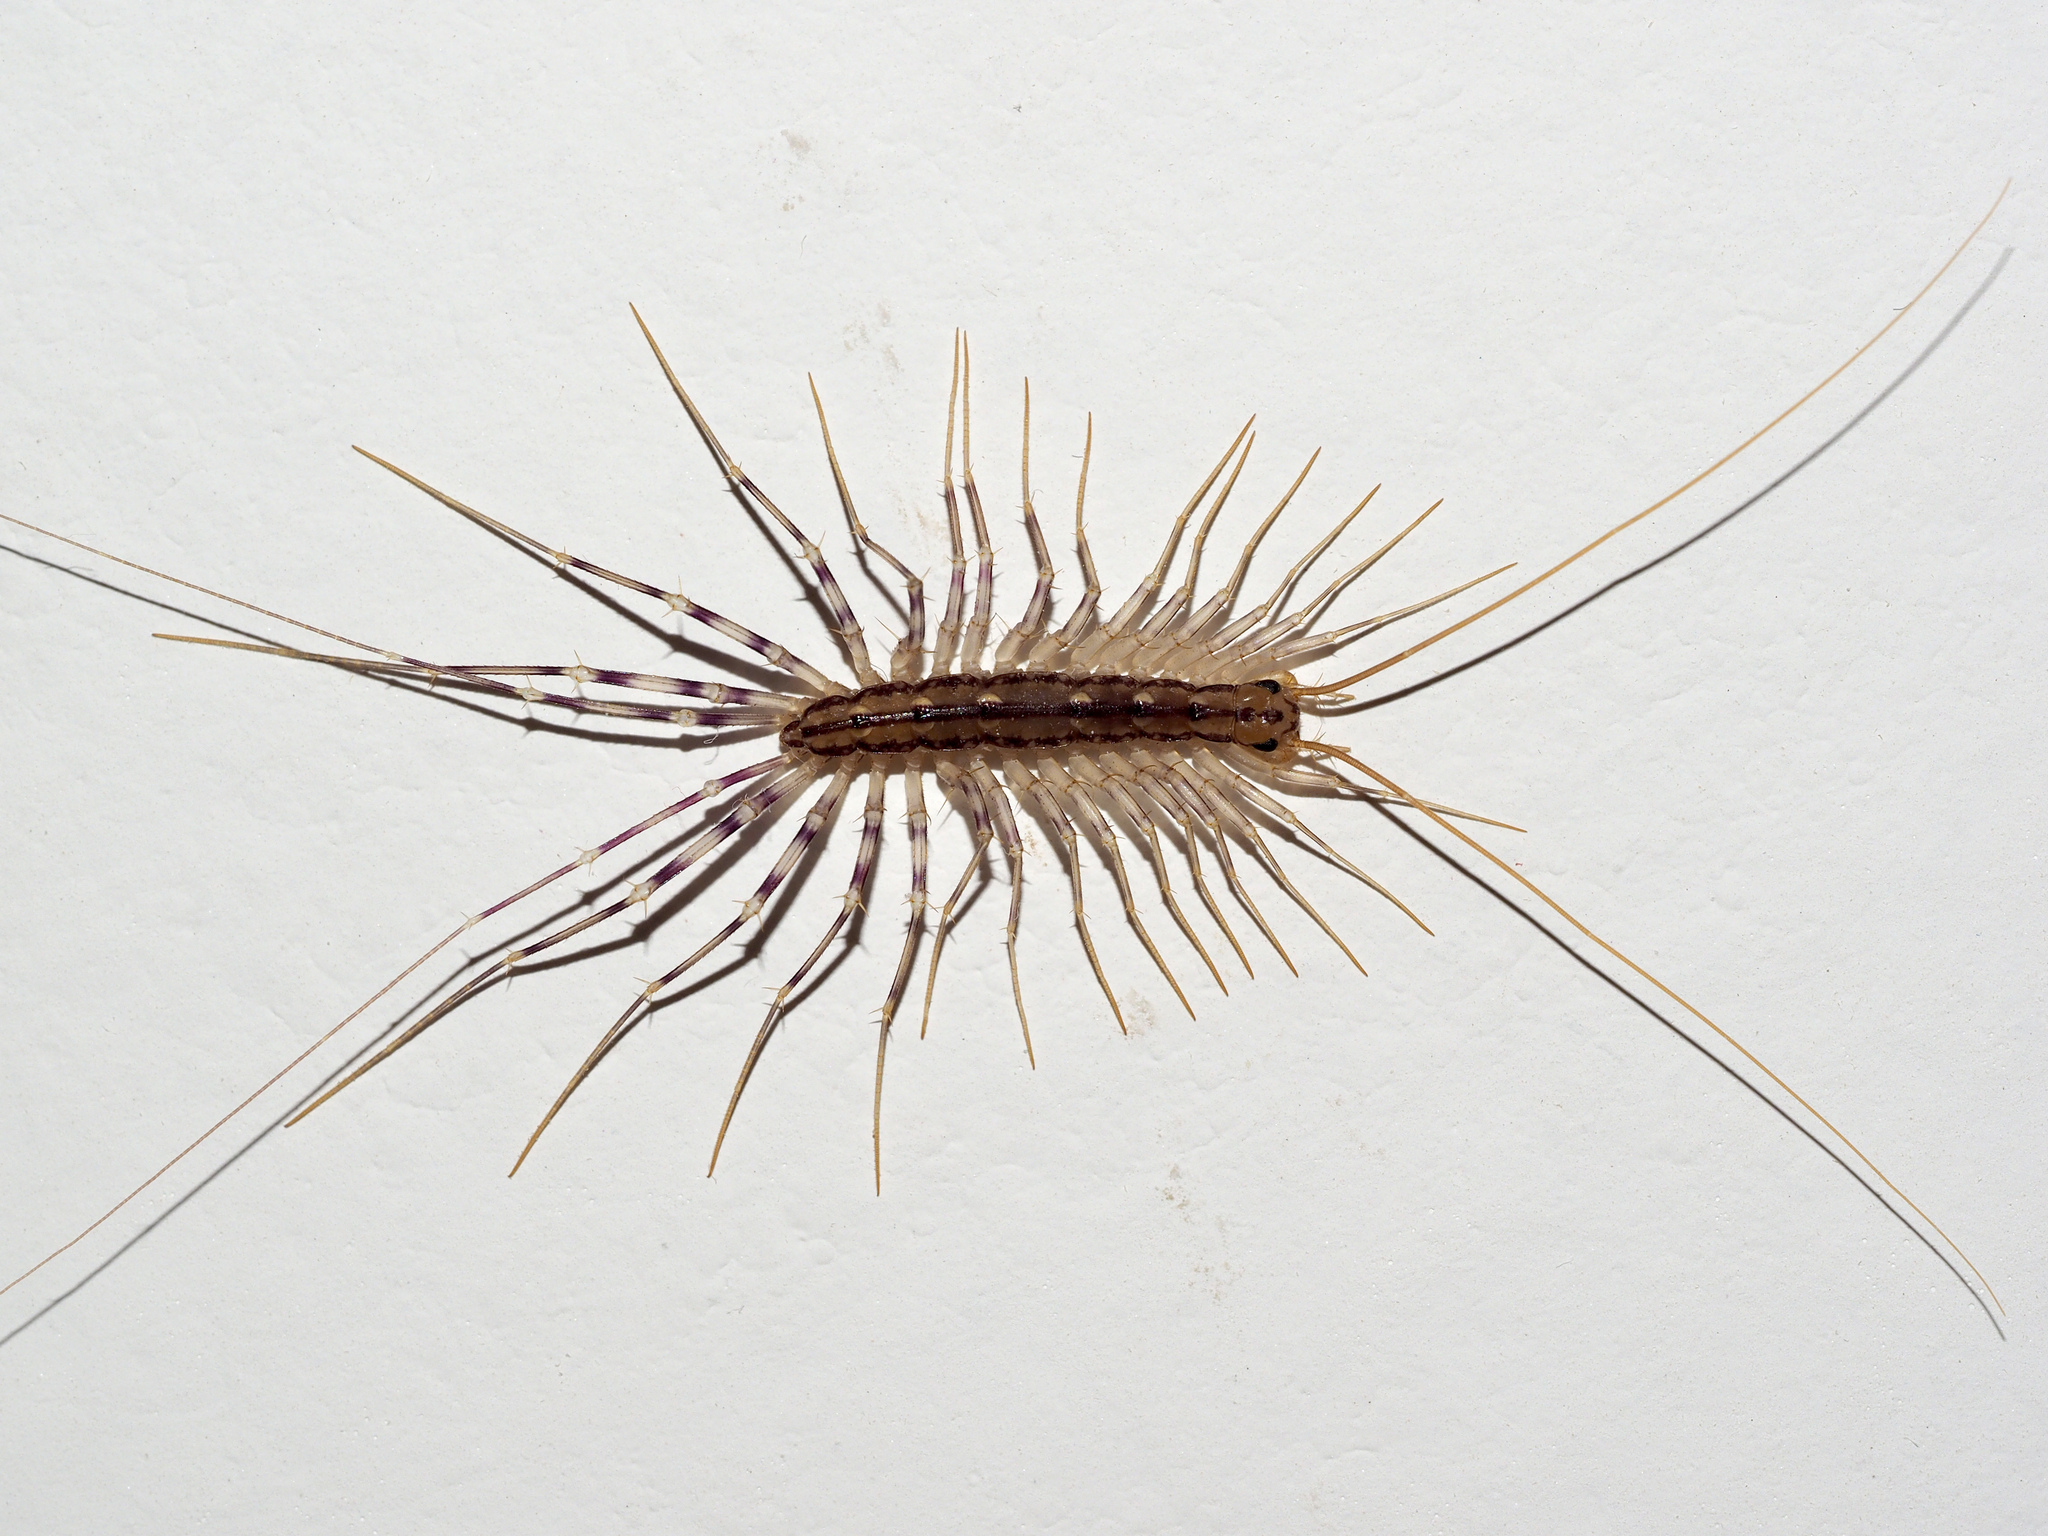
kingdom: Animalia
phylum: Arthropoda
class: Chilopoda
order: Scutigeromorpha
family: Scutigeridae
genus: Scutigera
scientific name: Scutigera coleoptrata
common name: House centipede
